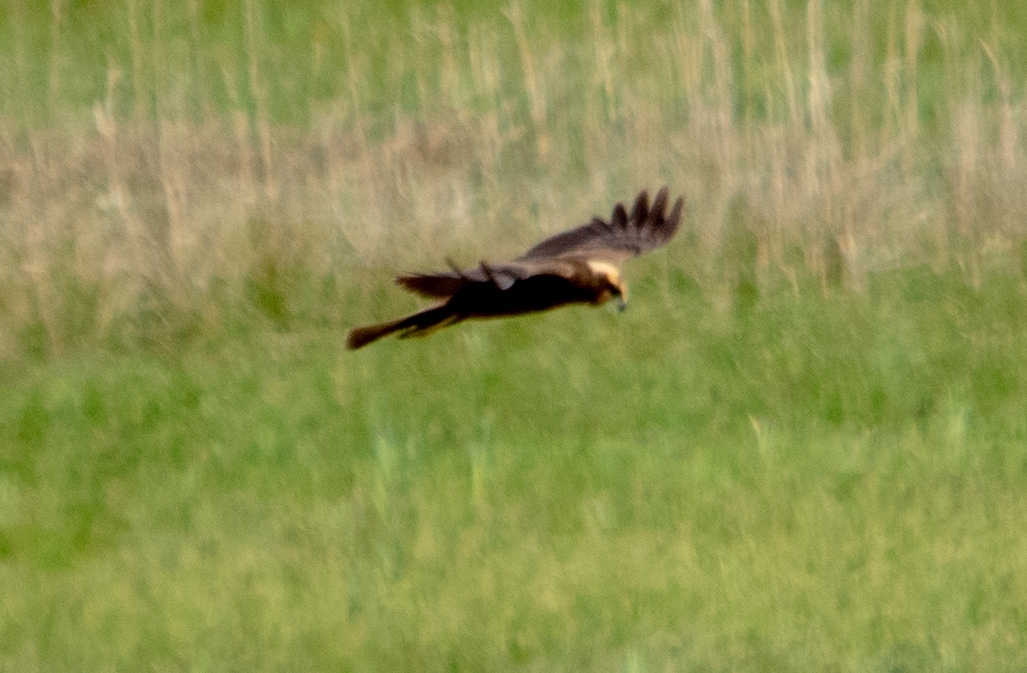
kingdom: Animalia
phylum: Chordata
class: Aves
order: Accipitriformes
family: Accipitridae
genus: Circus
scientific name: Circus aeruginosus
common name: Western marsh harrier
